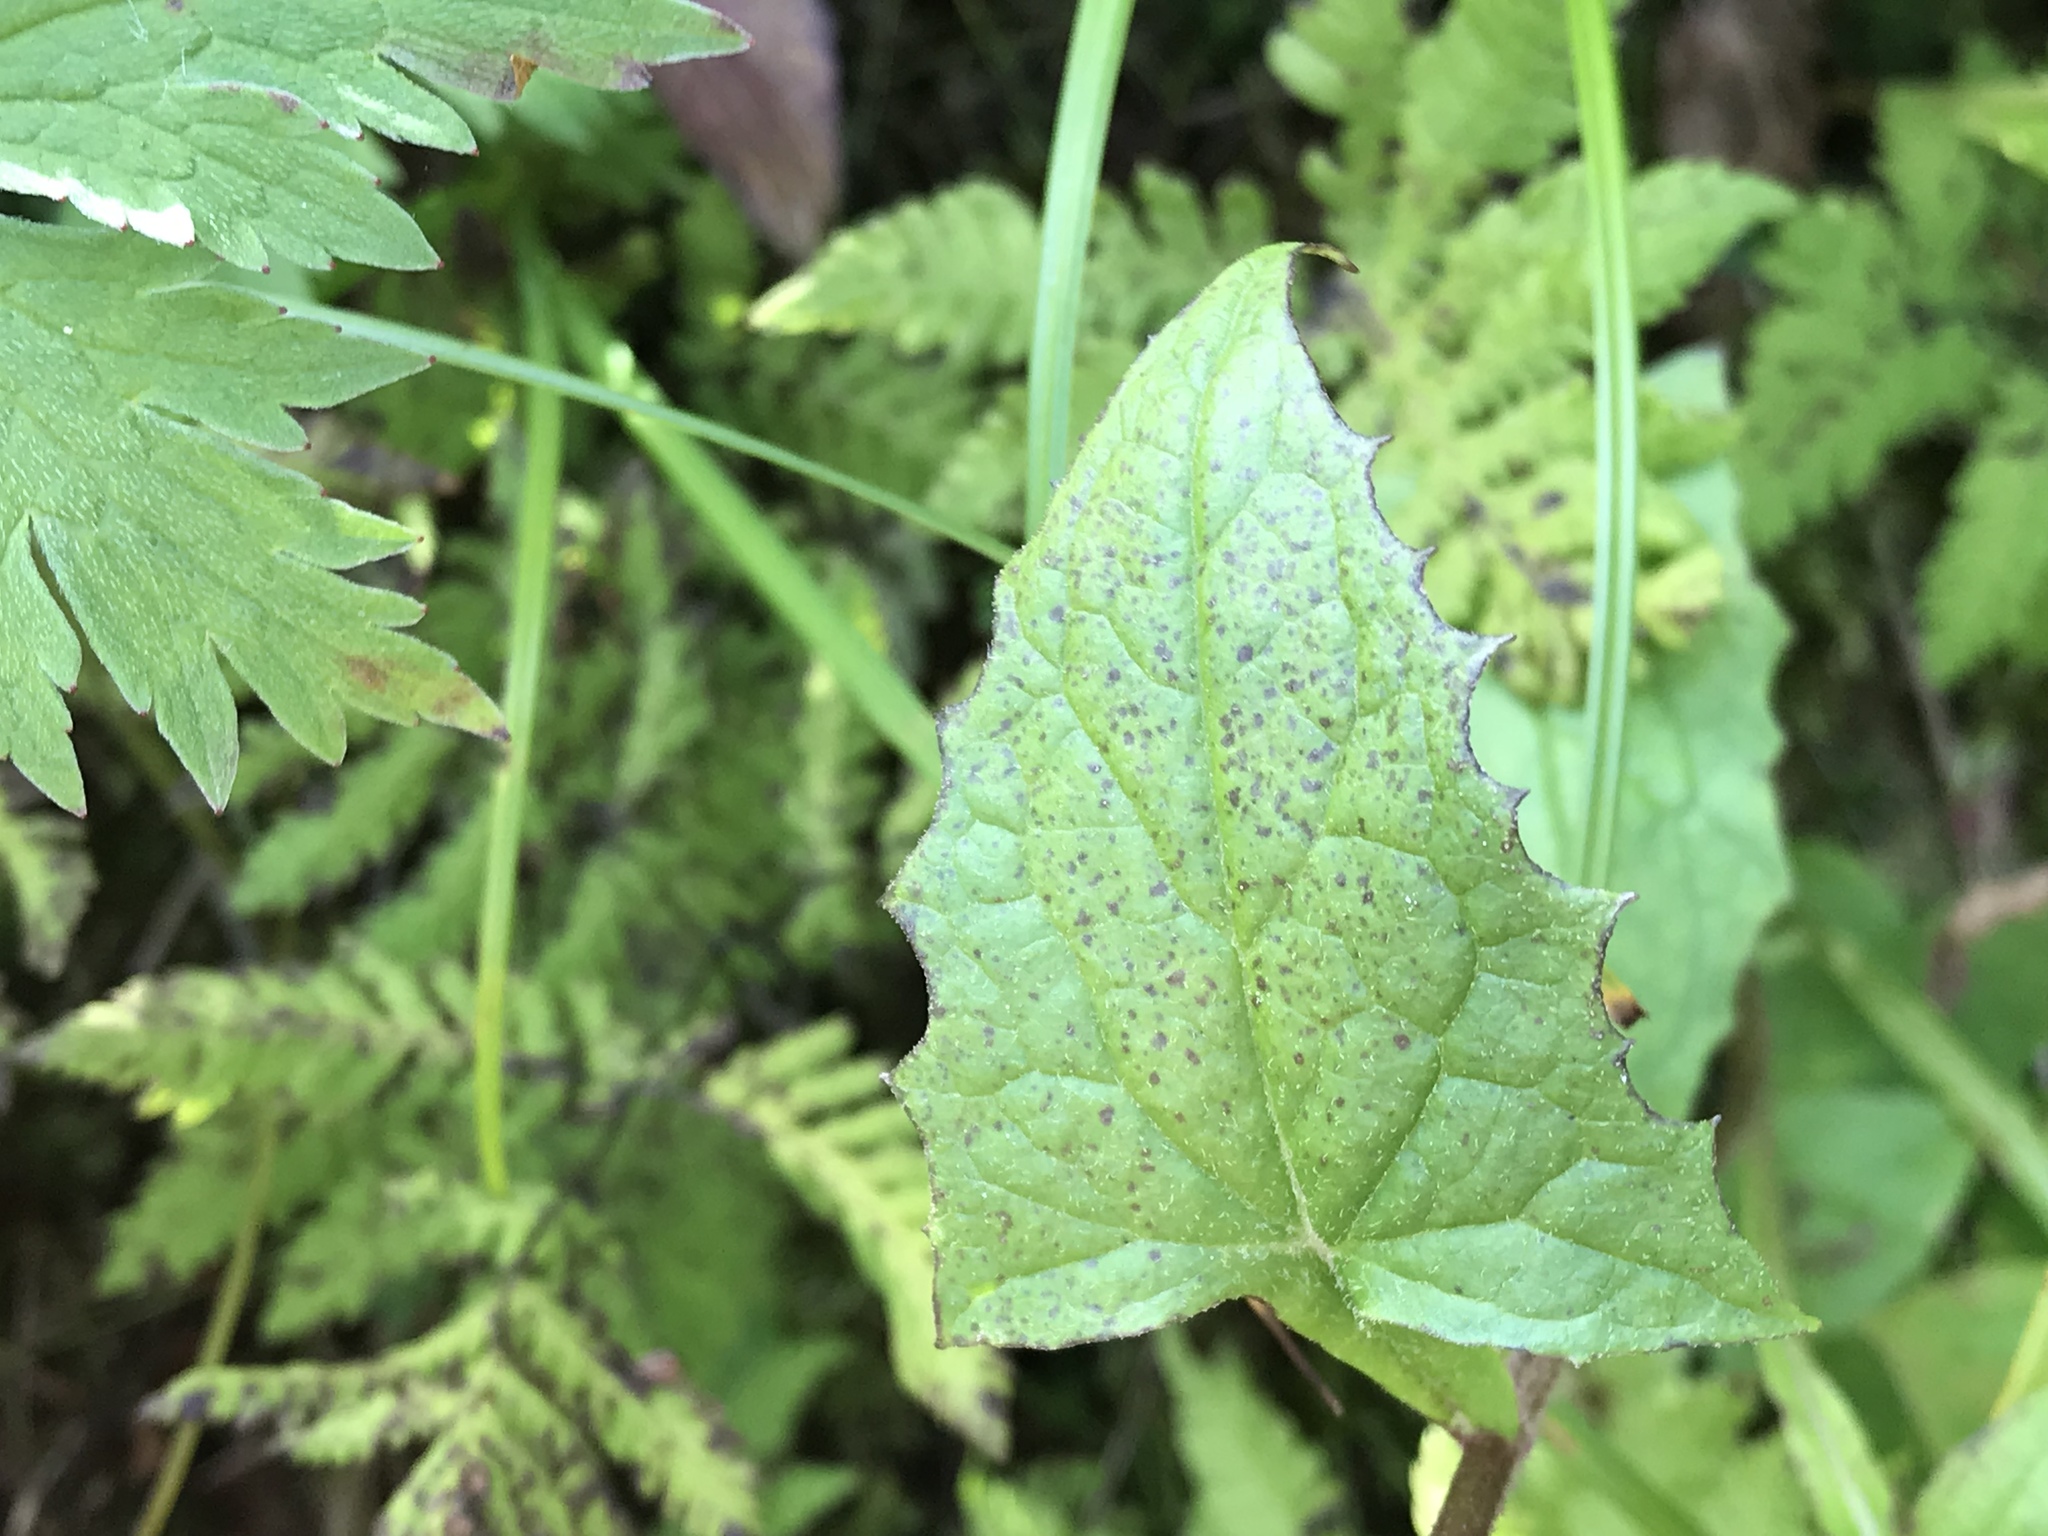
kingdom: Plantae
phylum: Tracheophyta
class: Magnoliopsida
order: Asterales
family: Asteraceae
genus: Nabalus
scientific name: Nabalus hastatus
